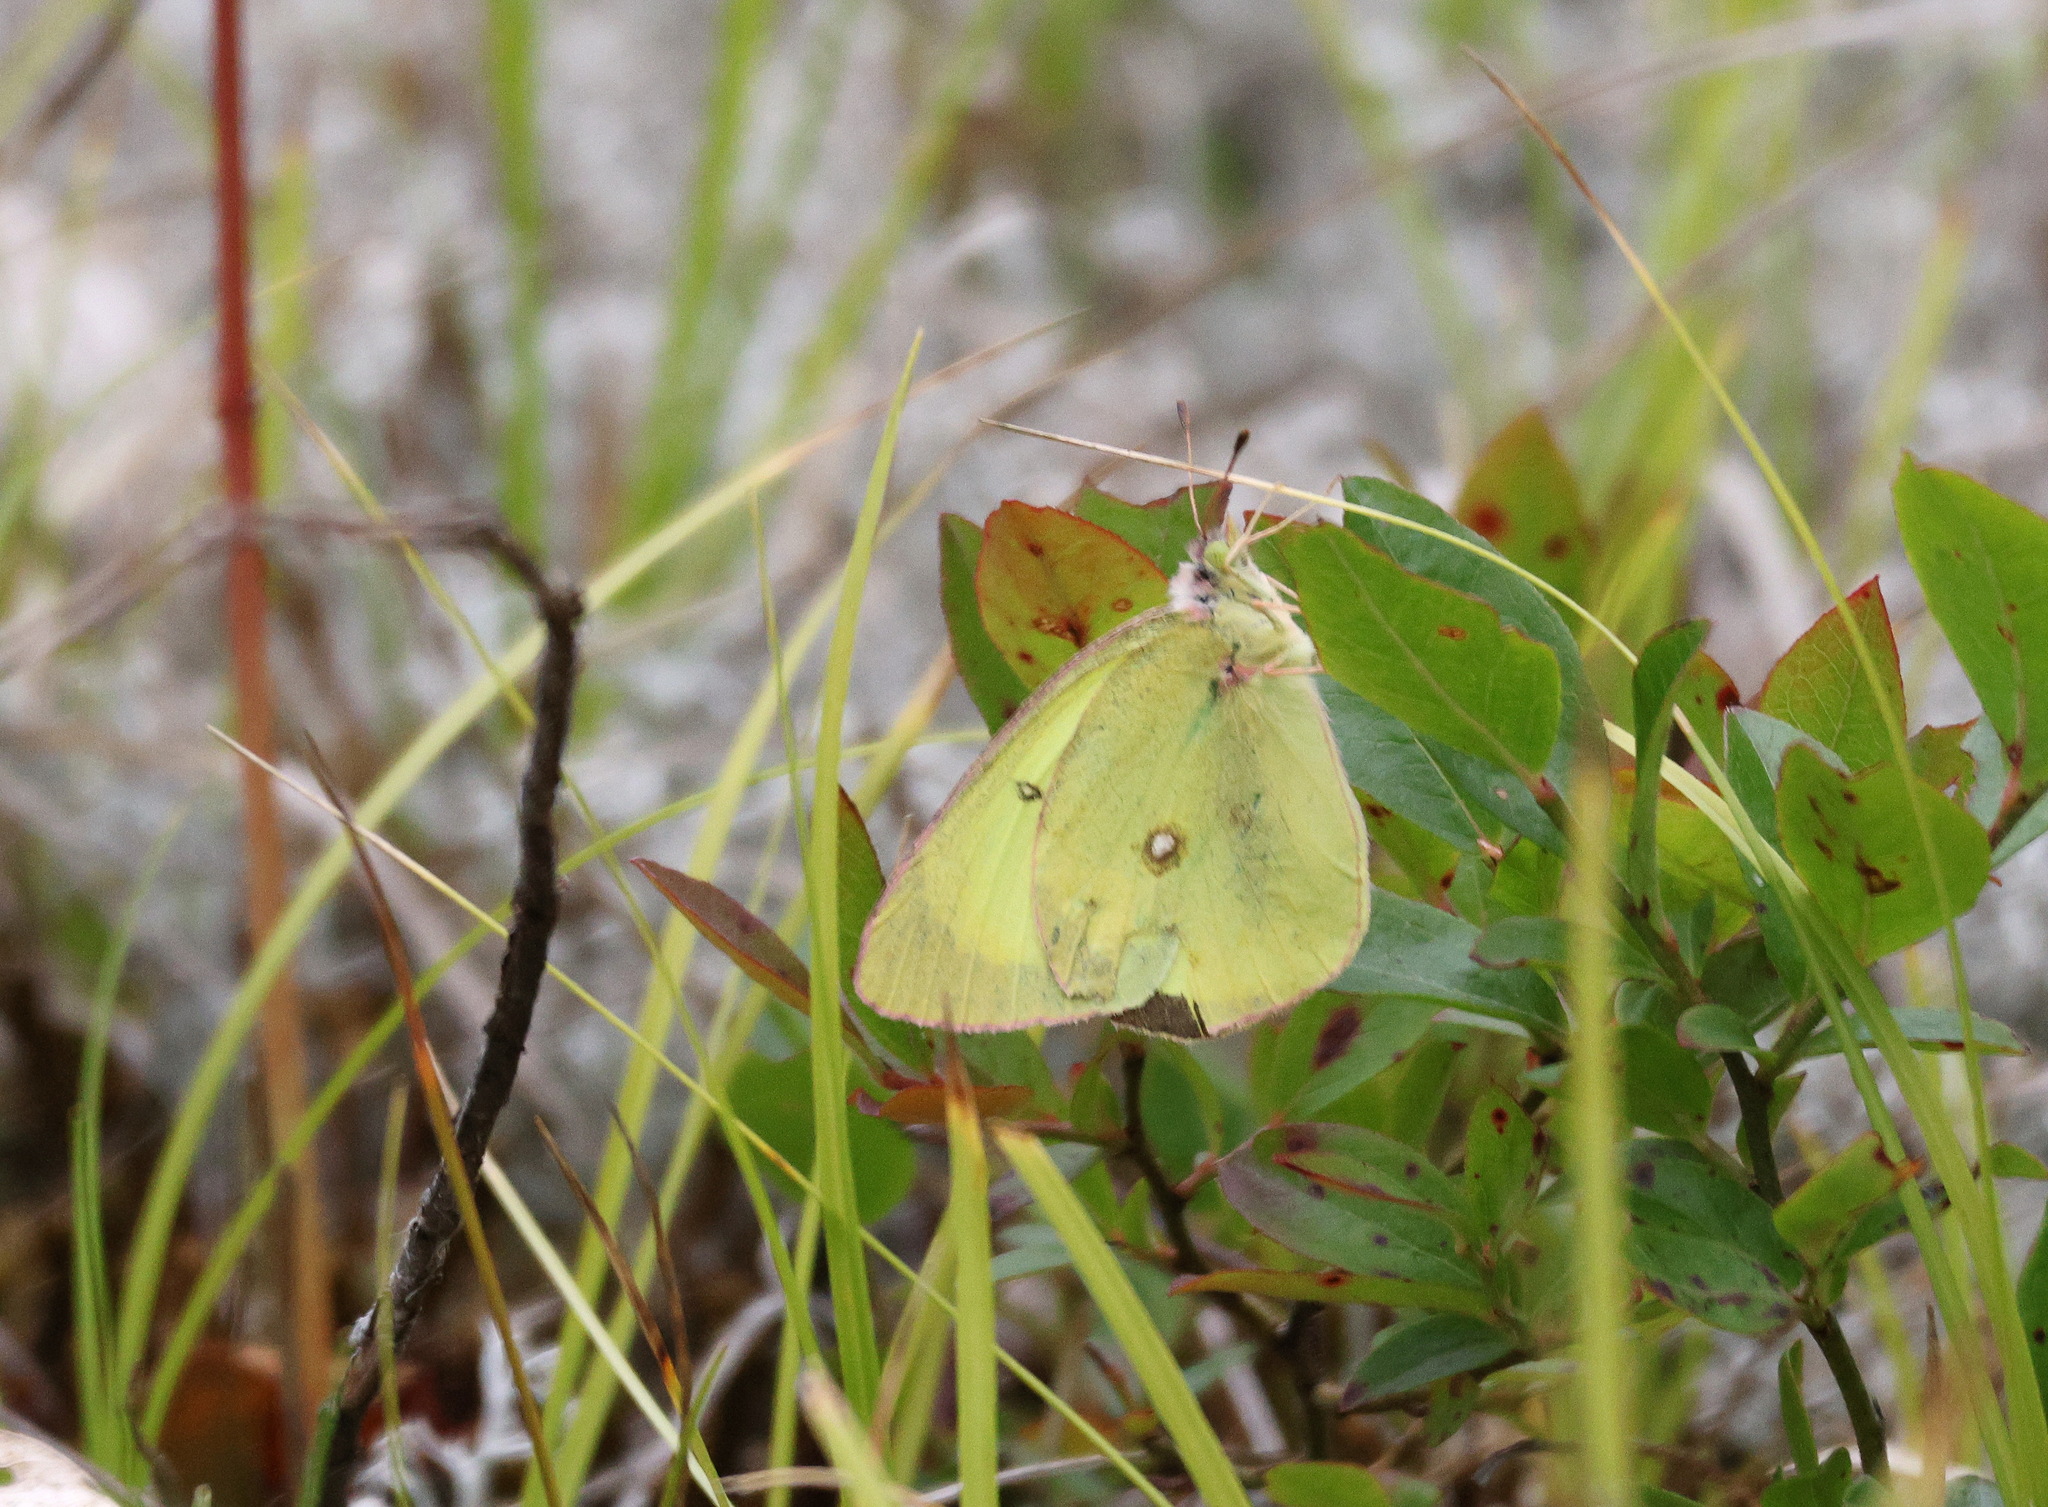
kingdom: Animalia
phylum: Arthropoda
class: Insecta
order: Lepidoptera
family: Pieridae
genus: Colias
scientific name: Colias philodice
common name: Clouded sulphur
